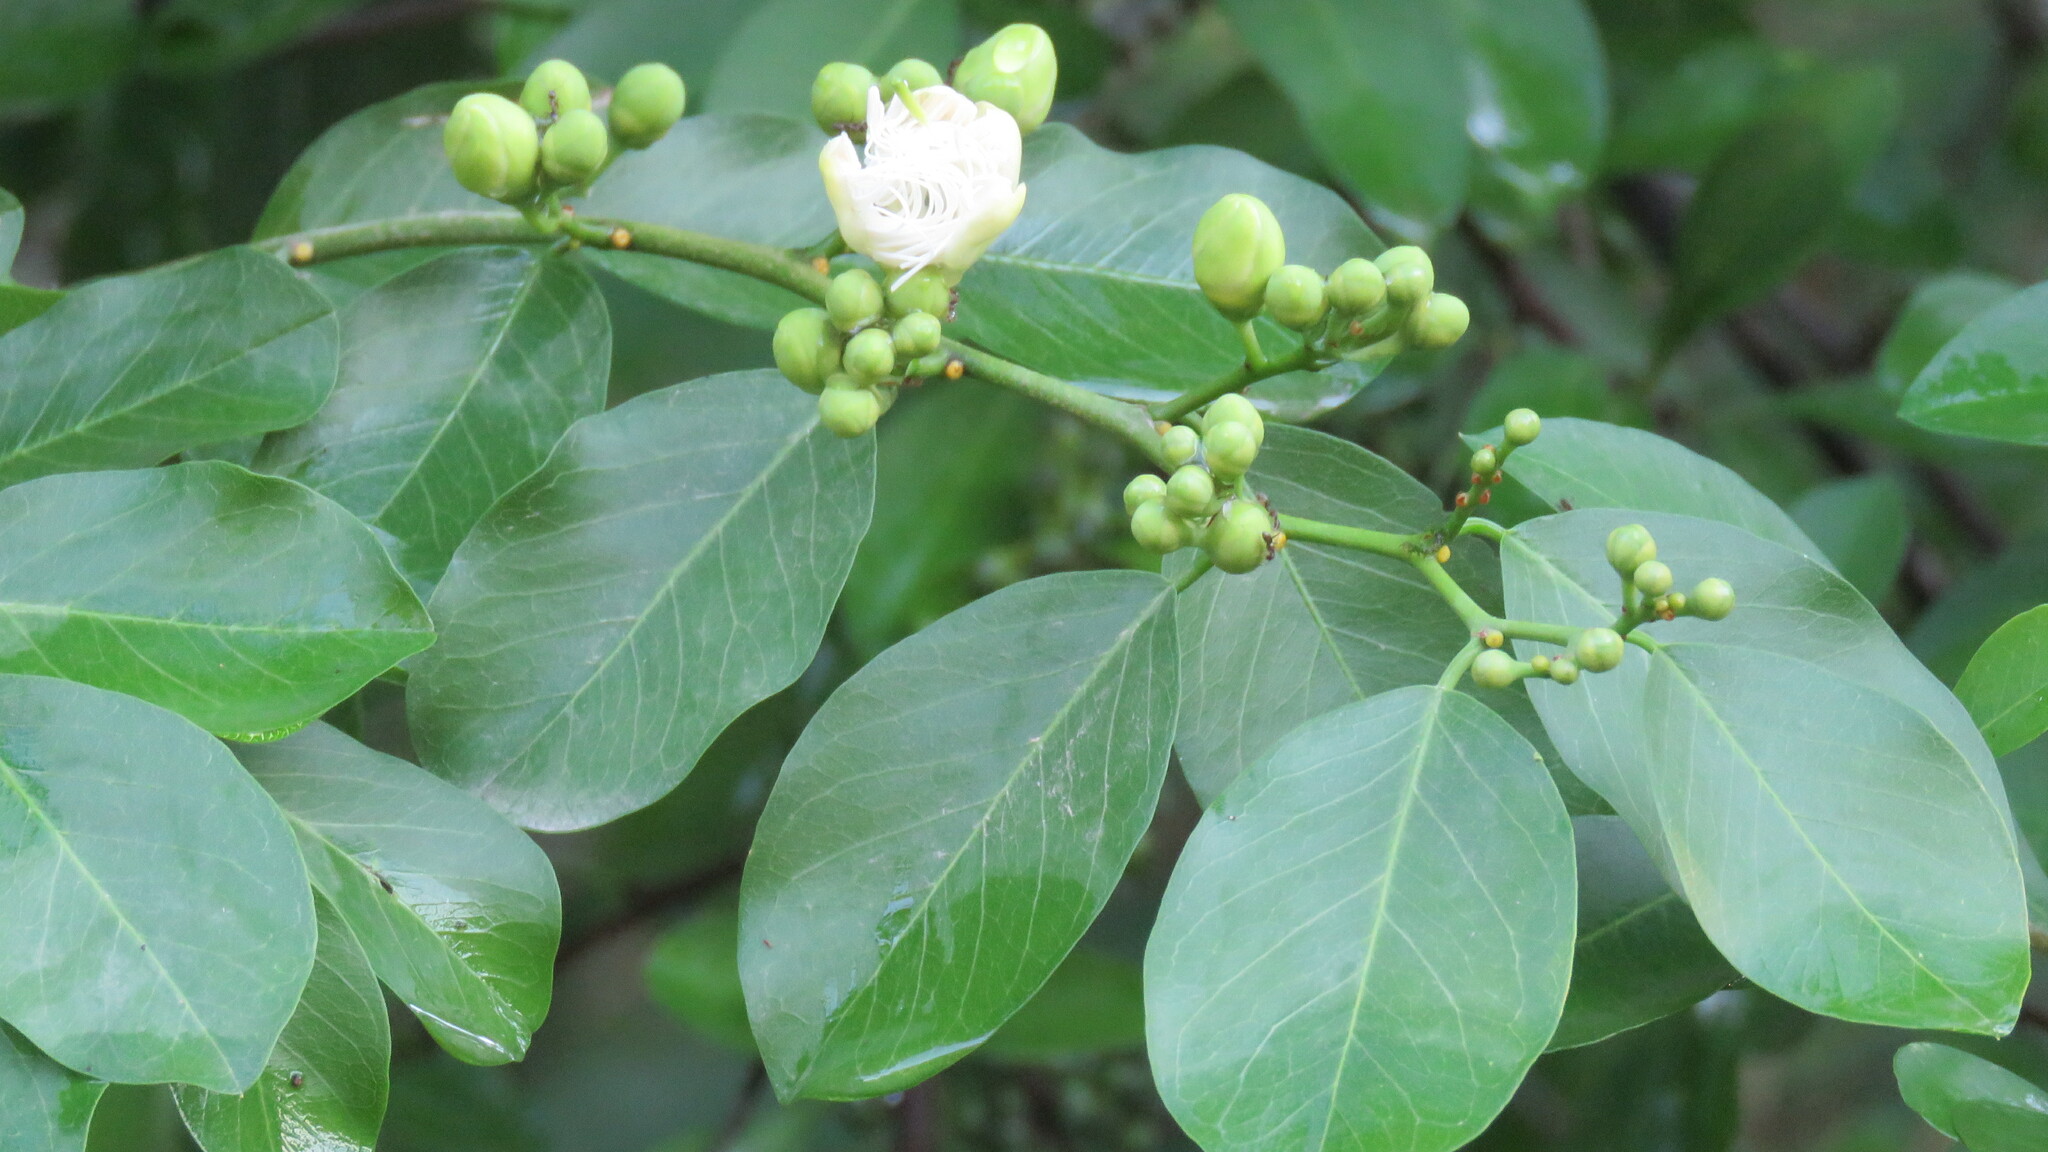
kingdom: Plantae
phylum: Tracheophyta
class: Magnoliopsida
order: Brassicales
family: Capparaceae
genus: Cynophalla
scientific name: Cynophalla retusa
